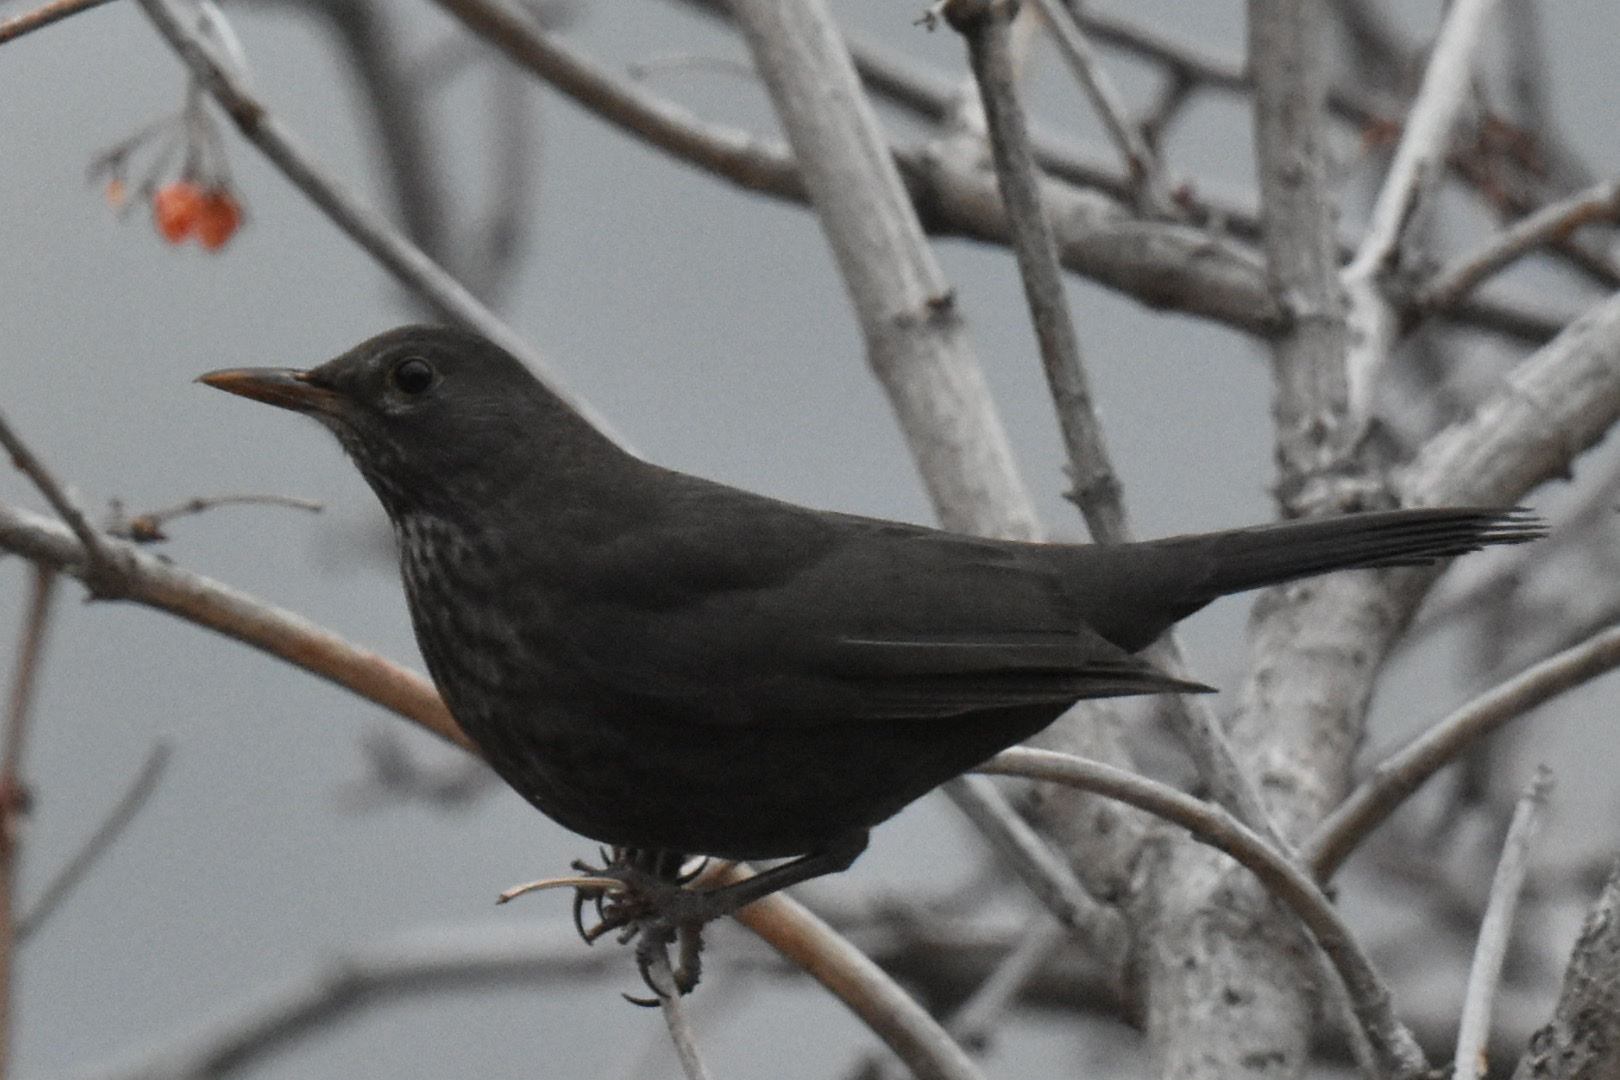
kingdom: Animalia
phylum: Chordata
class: Aves
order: Passeriformes
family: Turdidae
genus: Turdus
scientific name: Turdus merula
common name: Common blackbird
